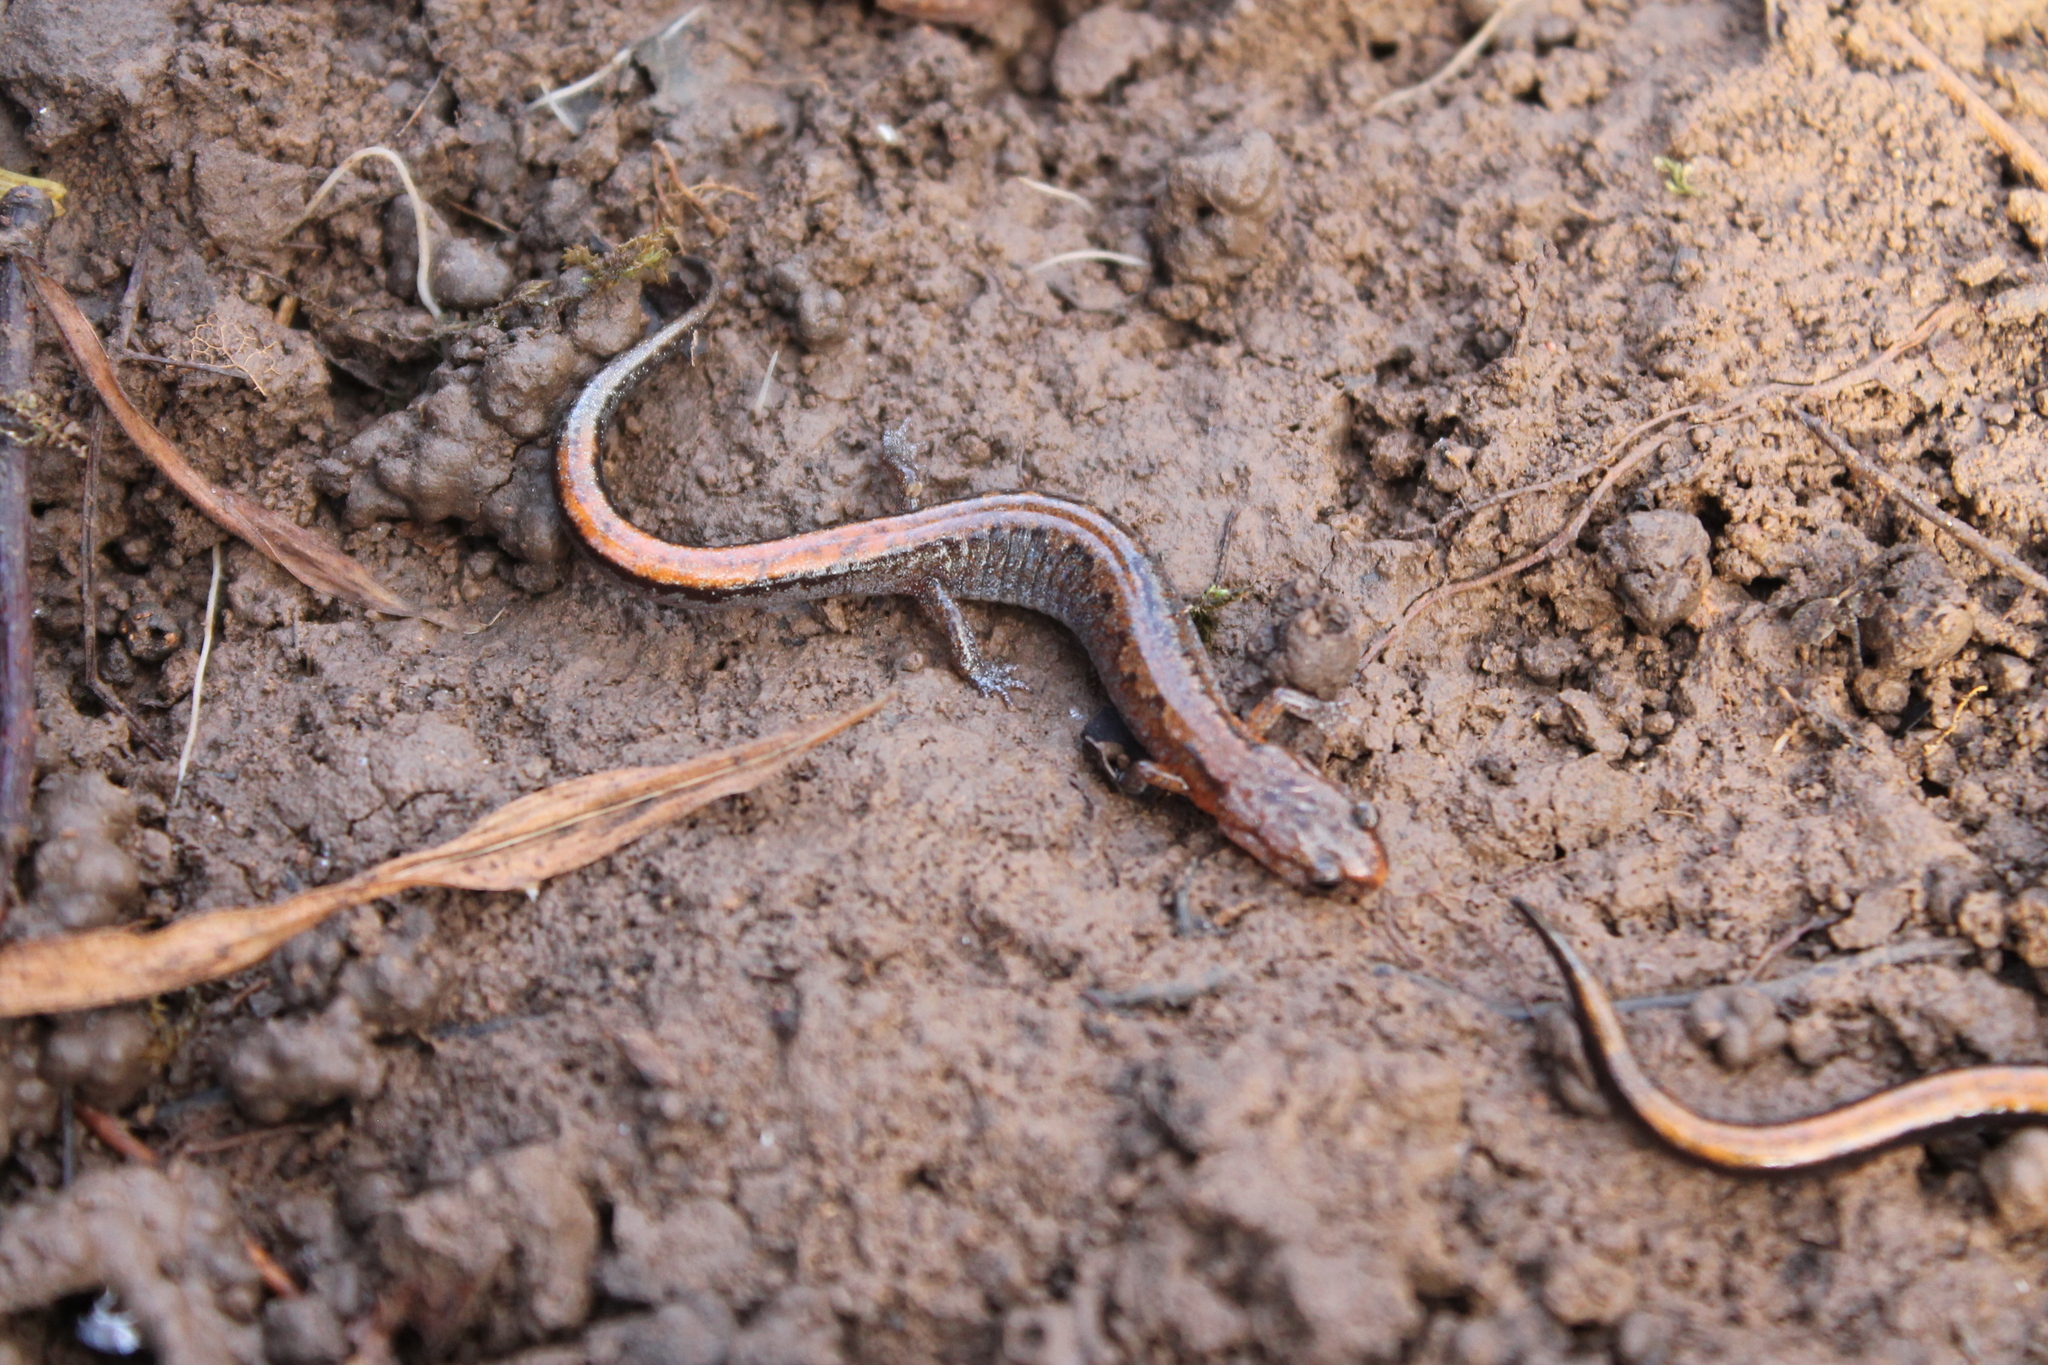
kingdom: Animalia
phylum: Chordata
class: Amphibia
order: Caudata
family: Plethodontidae
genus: Plethodon
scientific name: Plethodon dorsalis
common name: Northern zigzag salamander
